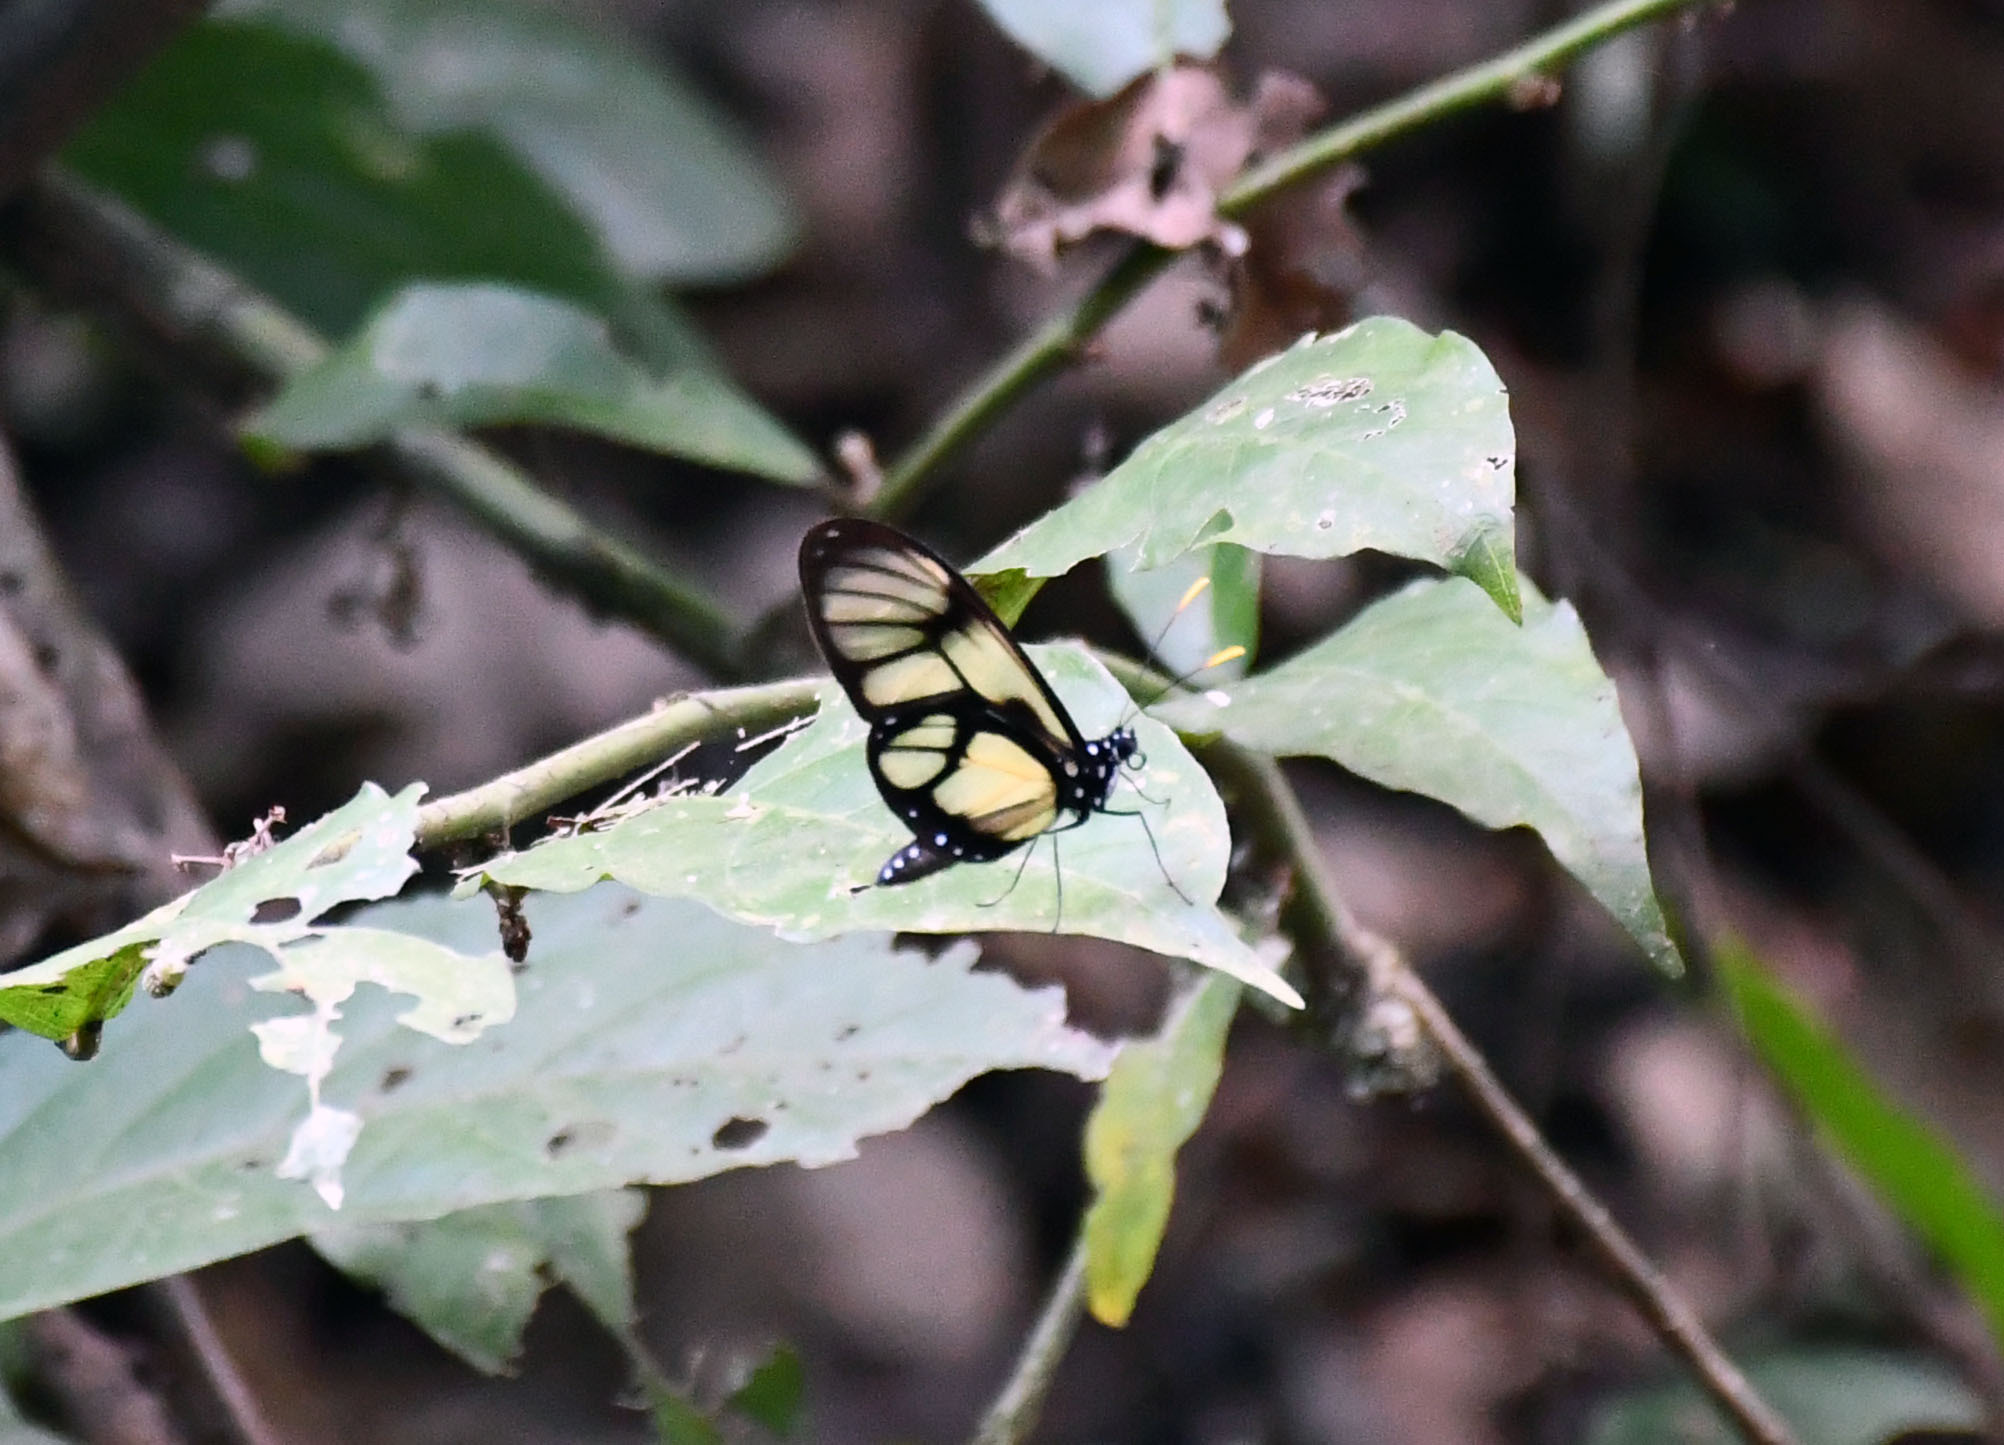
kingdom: Animalia
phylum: Arthropoda
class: Insecta
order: Lepidoptera
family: Nymphalidae
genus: Methona
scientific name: Methona confusa
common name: Confusa tigerwing
